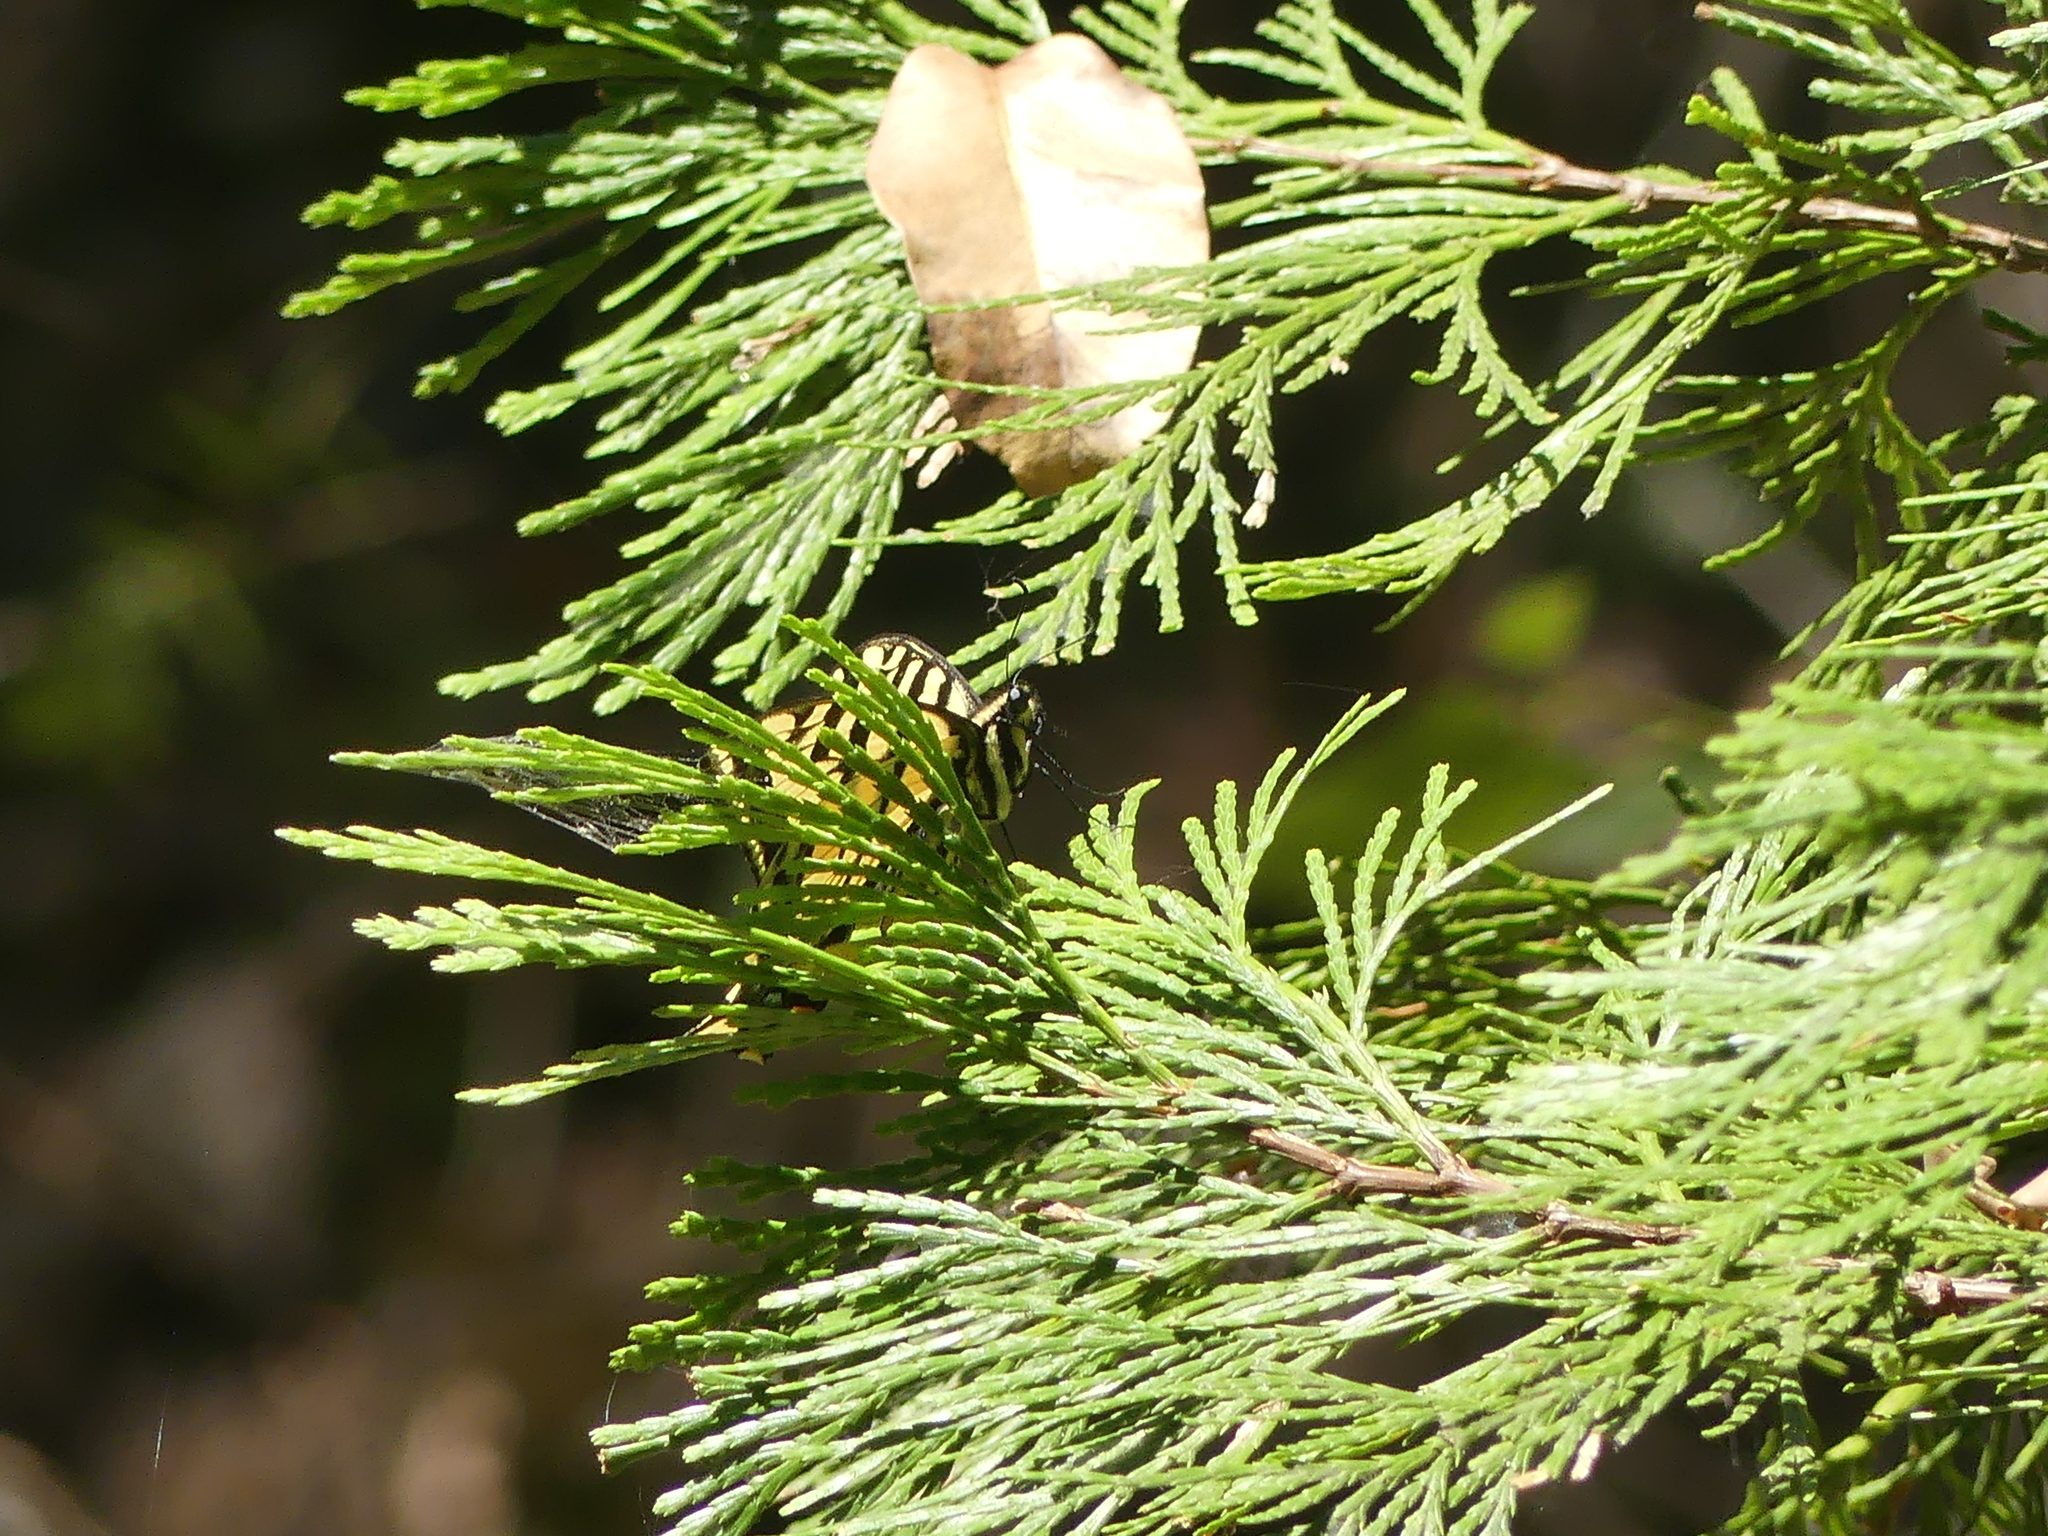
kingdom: Animalia
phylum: Arthropoda
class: Insecta
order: Lepidoptera
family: Papilionidae
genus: Papilio
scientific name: Papilio rutulus
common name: Western tiger swallowtail
